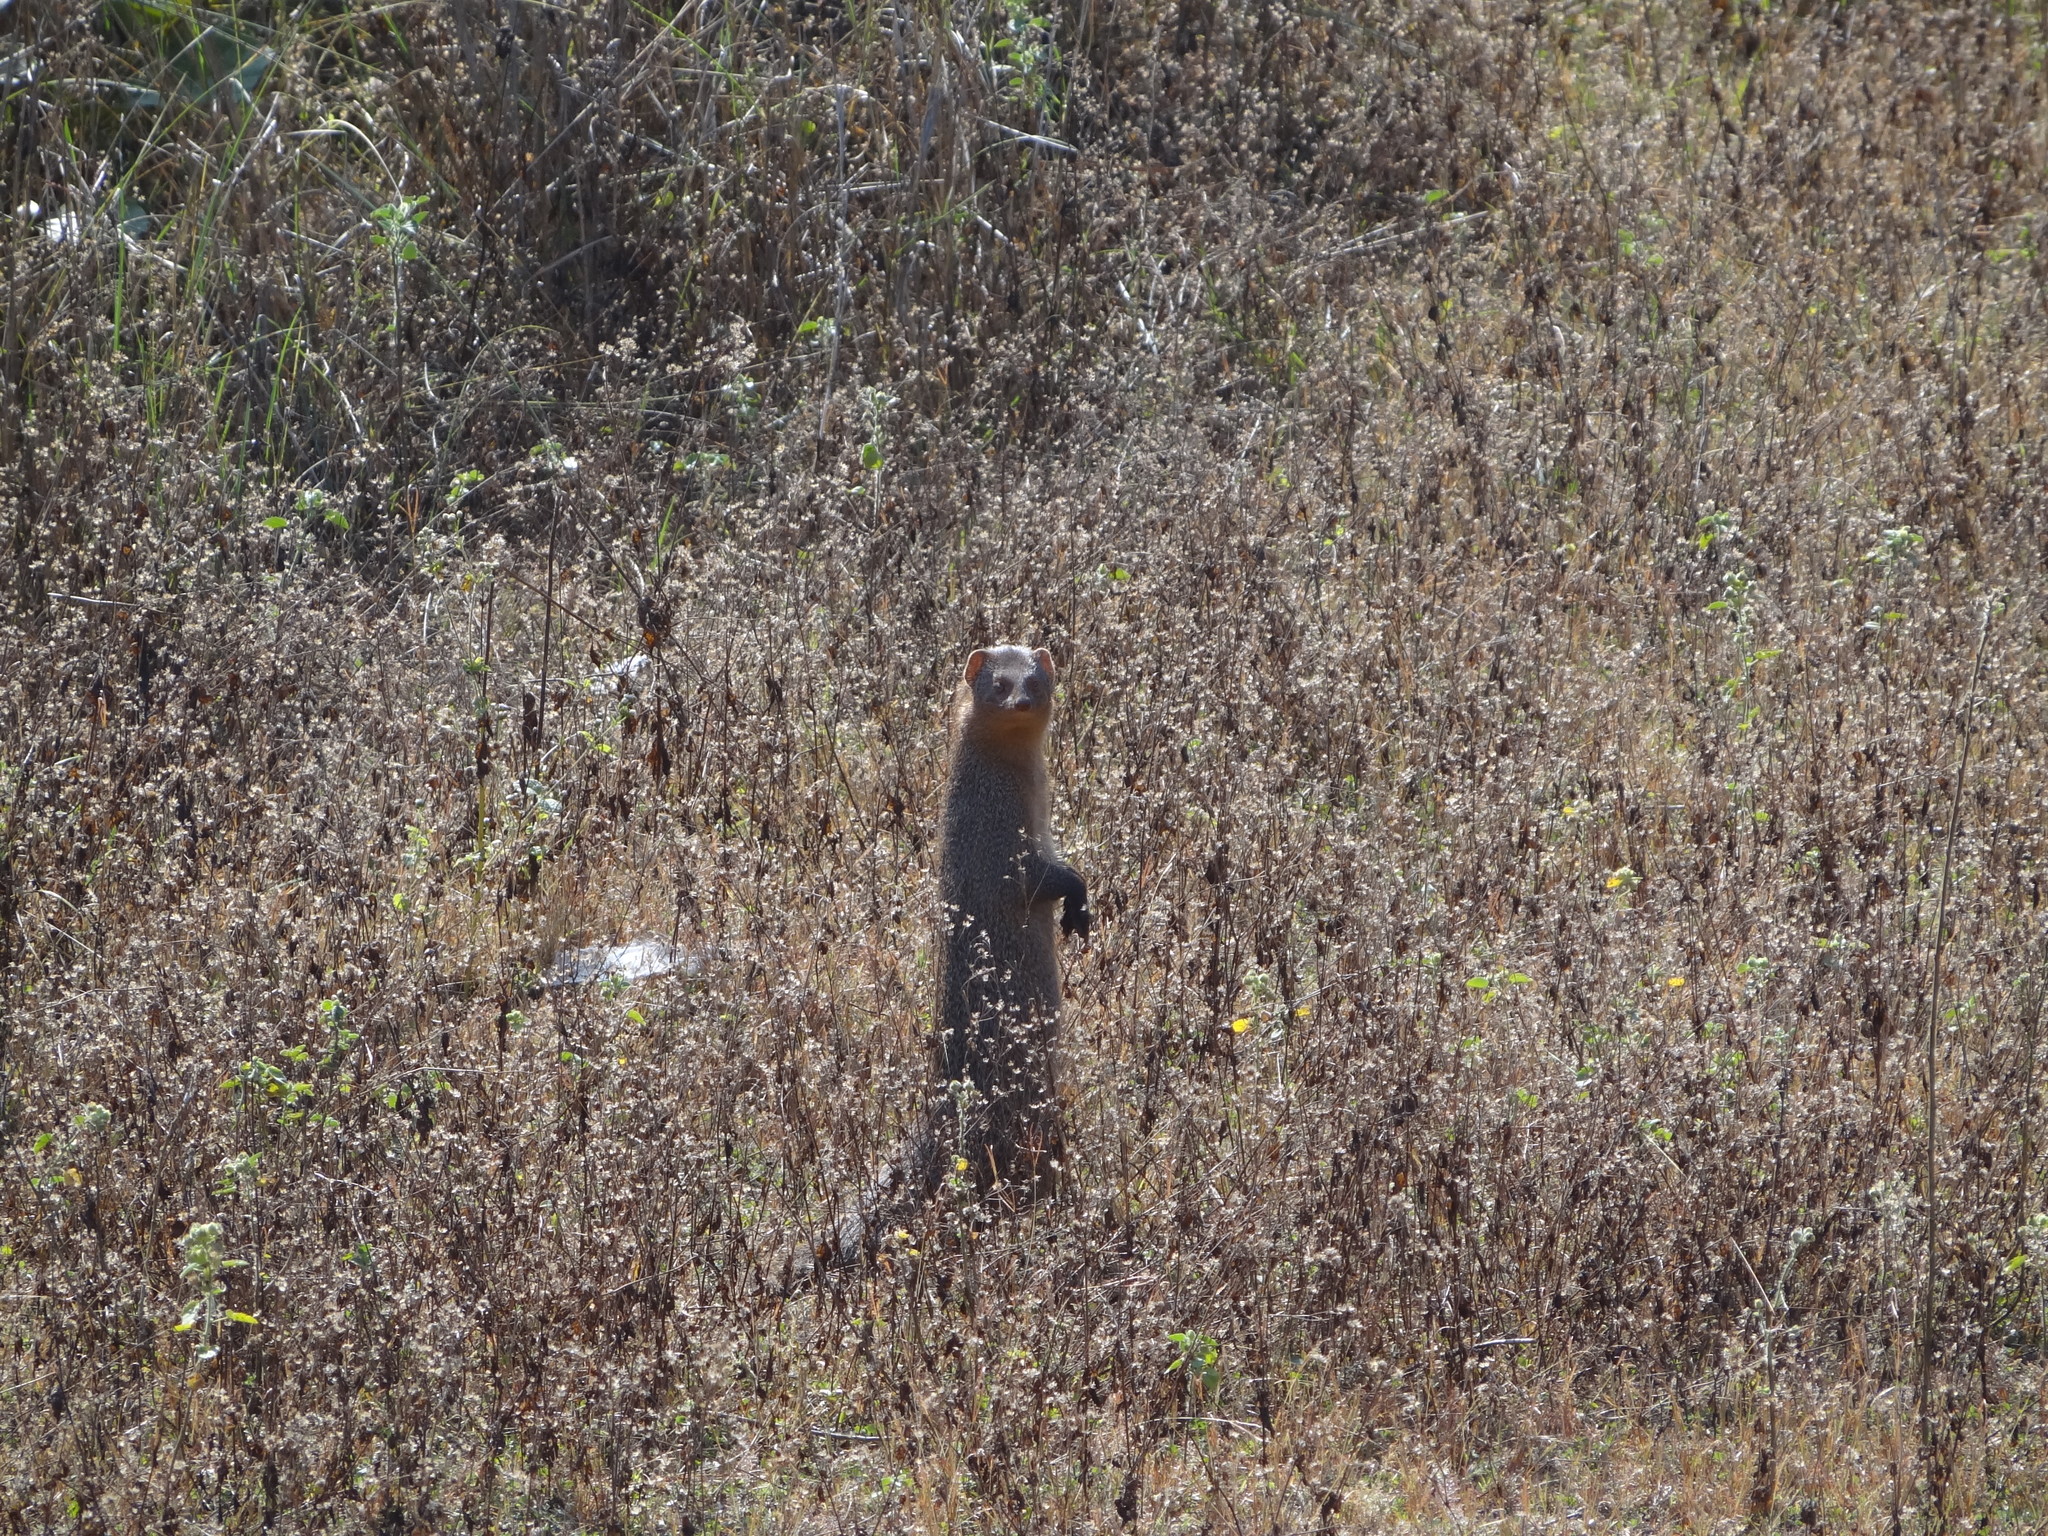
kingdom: Animalia
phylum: Chordata
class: Mammalia
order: Carnivora
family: Herpestidae
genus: Herpestes
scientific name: Herpestes edwardsi
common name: Indian gray mongoose
